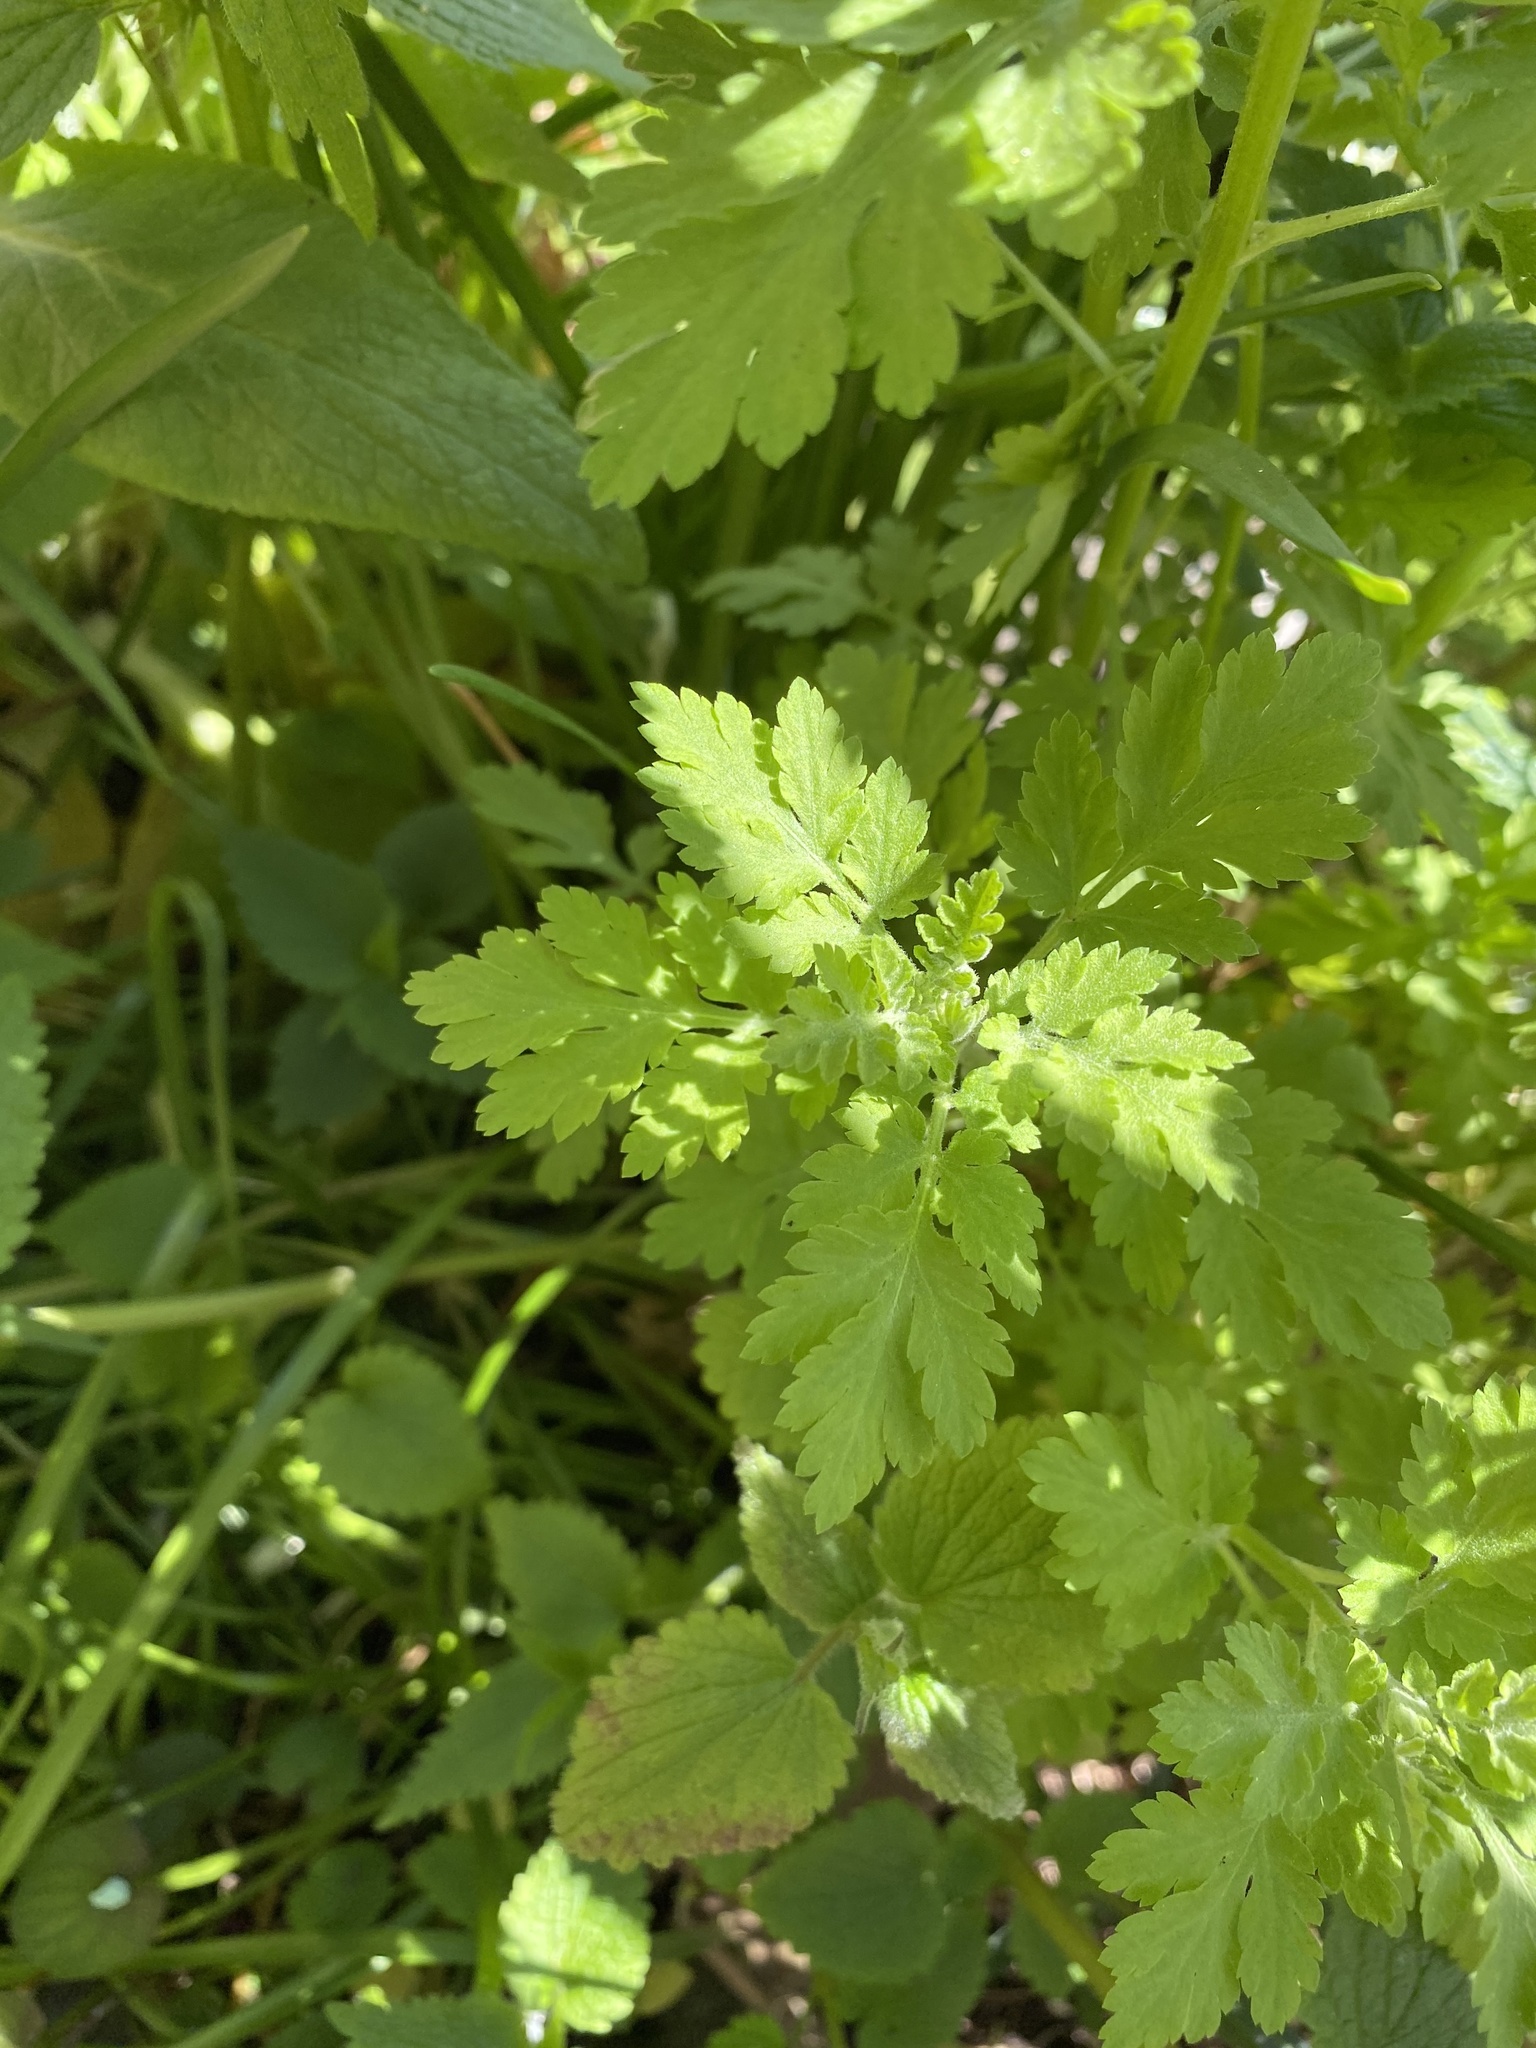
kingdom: Plantae
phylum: Tracheophyta
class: Magnoliopsida
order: Asterales
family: Asteraceae
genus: Tanacetum
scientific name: Tanacetum parthenium
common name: Feverfew
